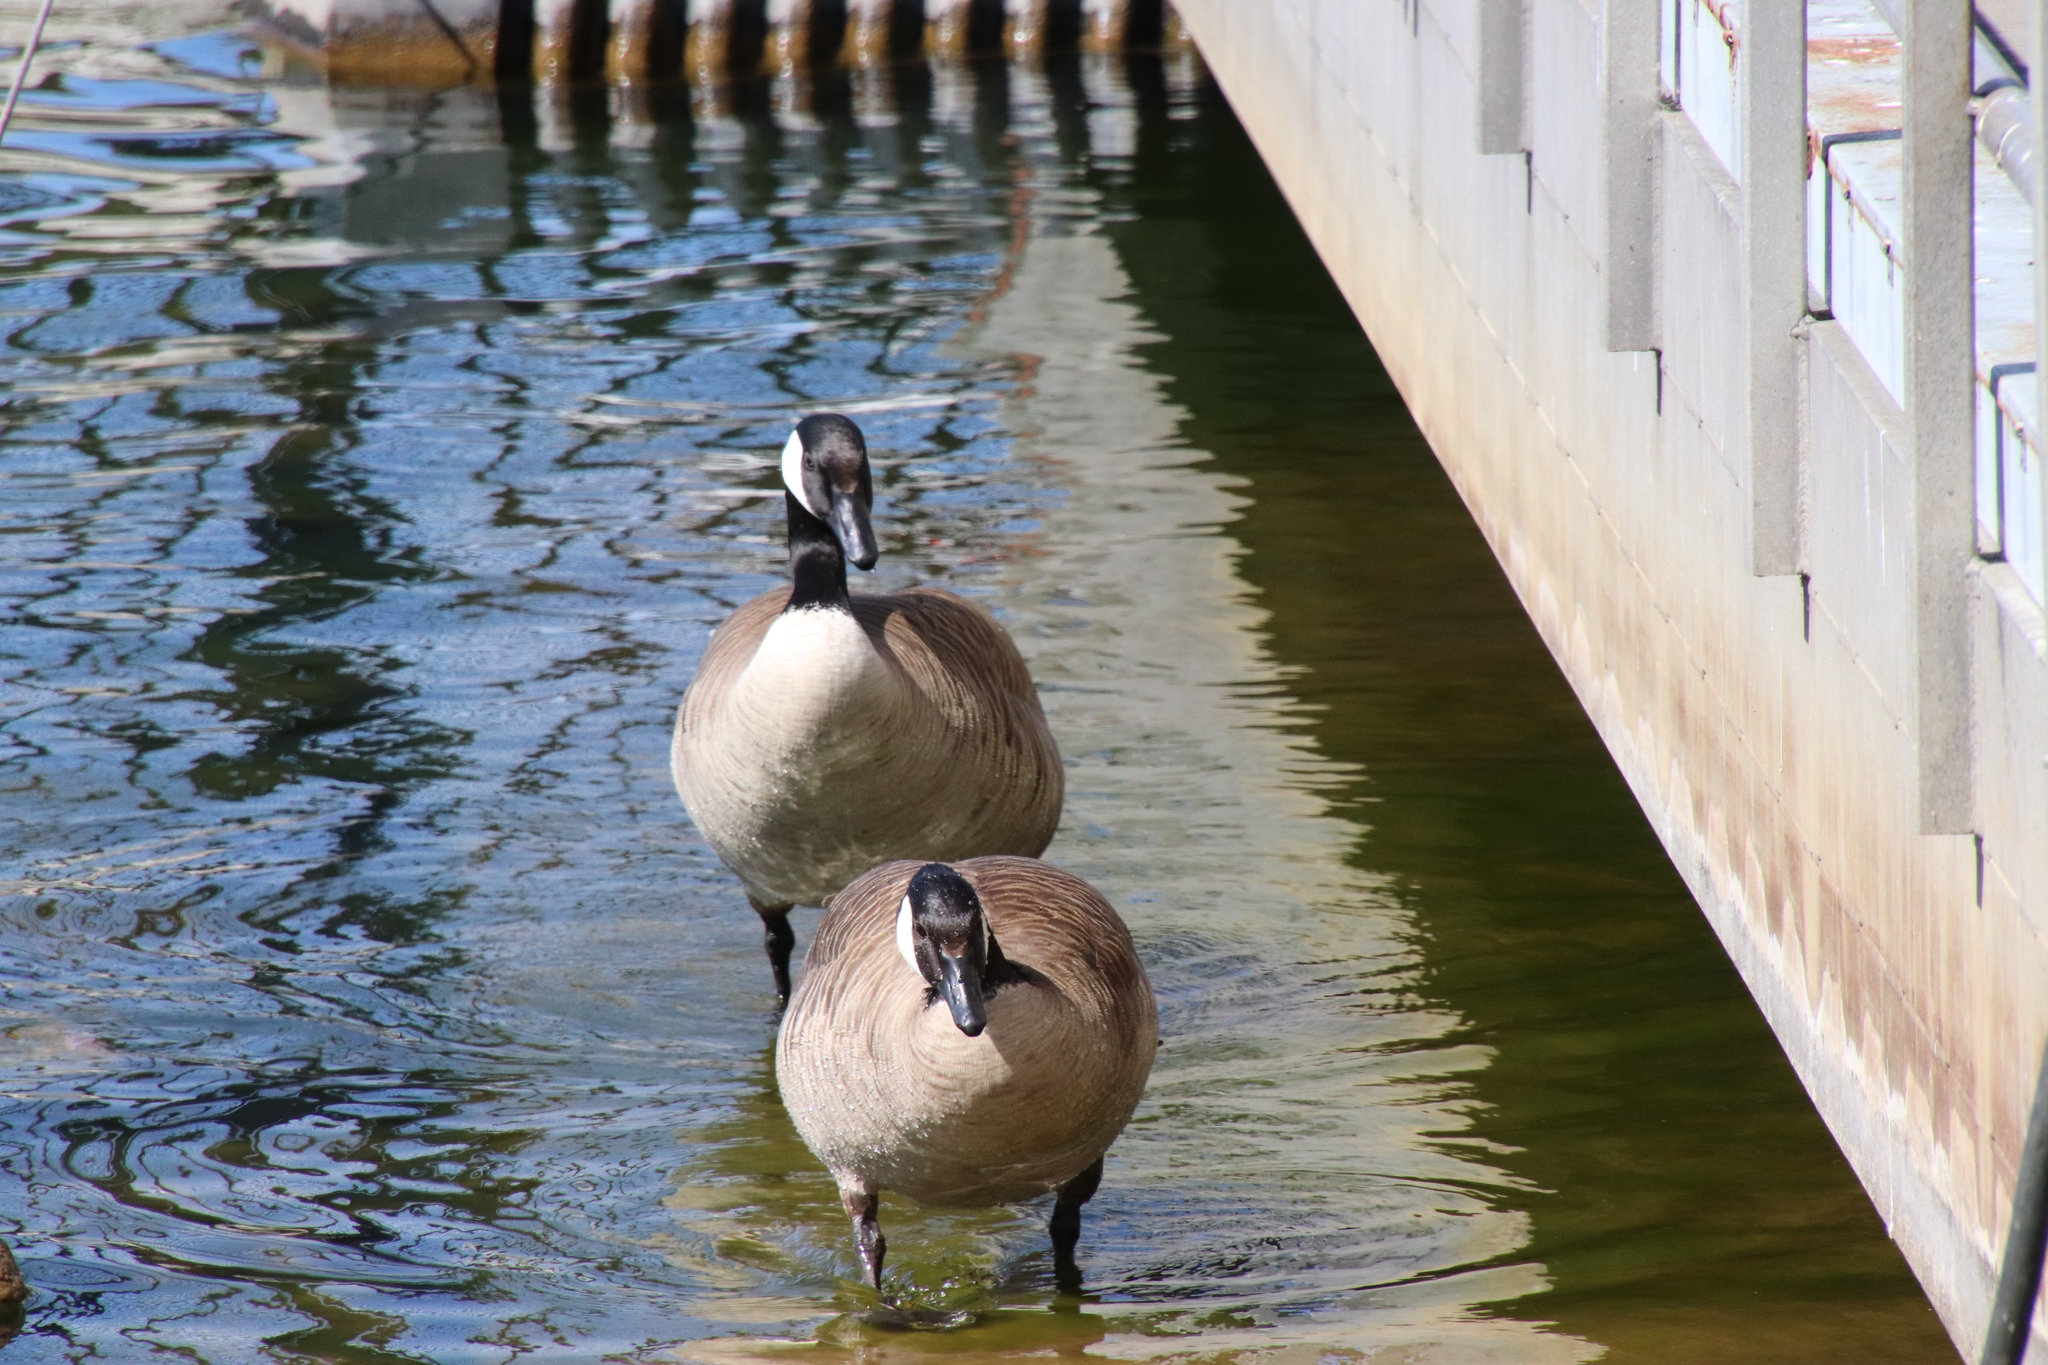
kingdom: Animalia
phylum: Chordata
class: Aves
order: Anseriformes
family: Anatidae
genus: Branta
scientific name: Branta canadensis
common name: Canada goose
